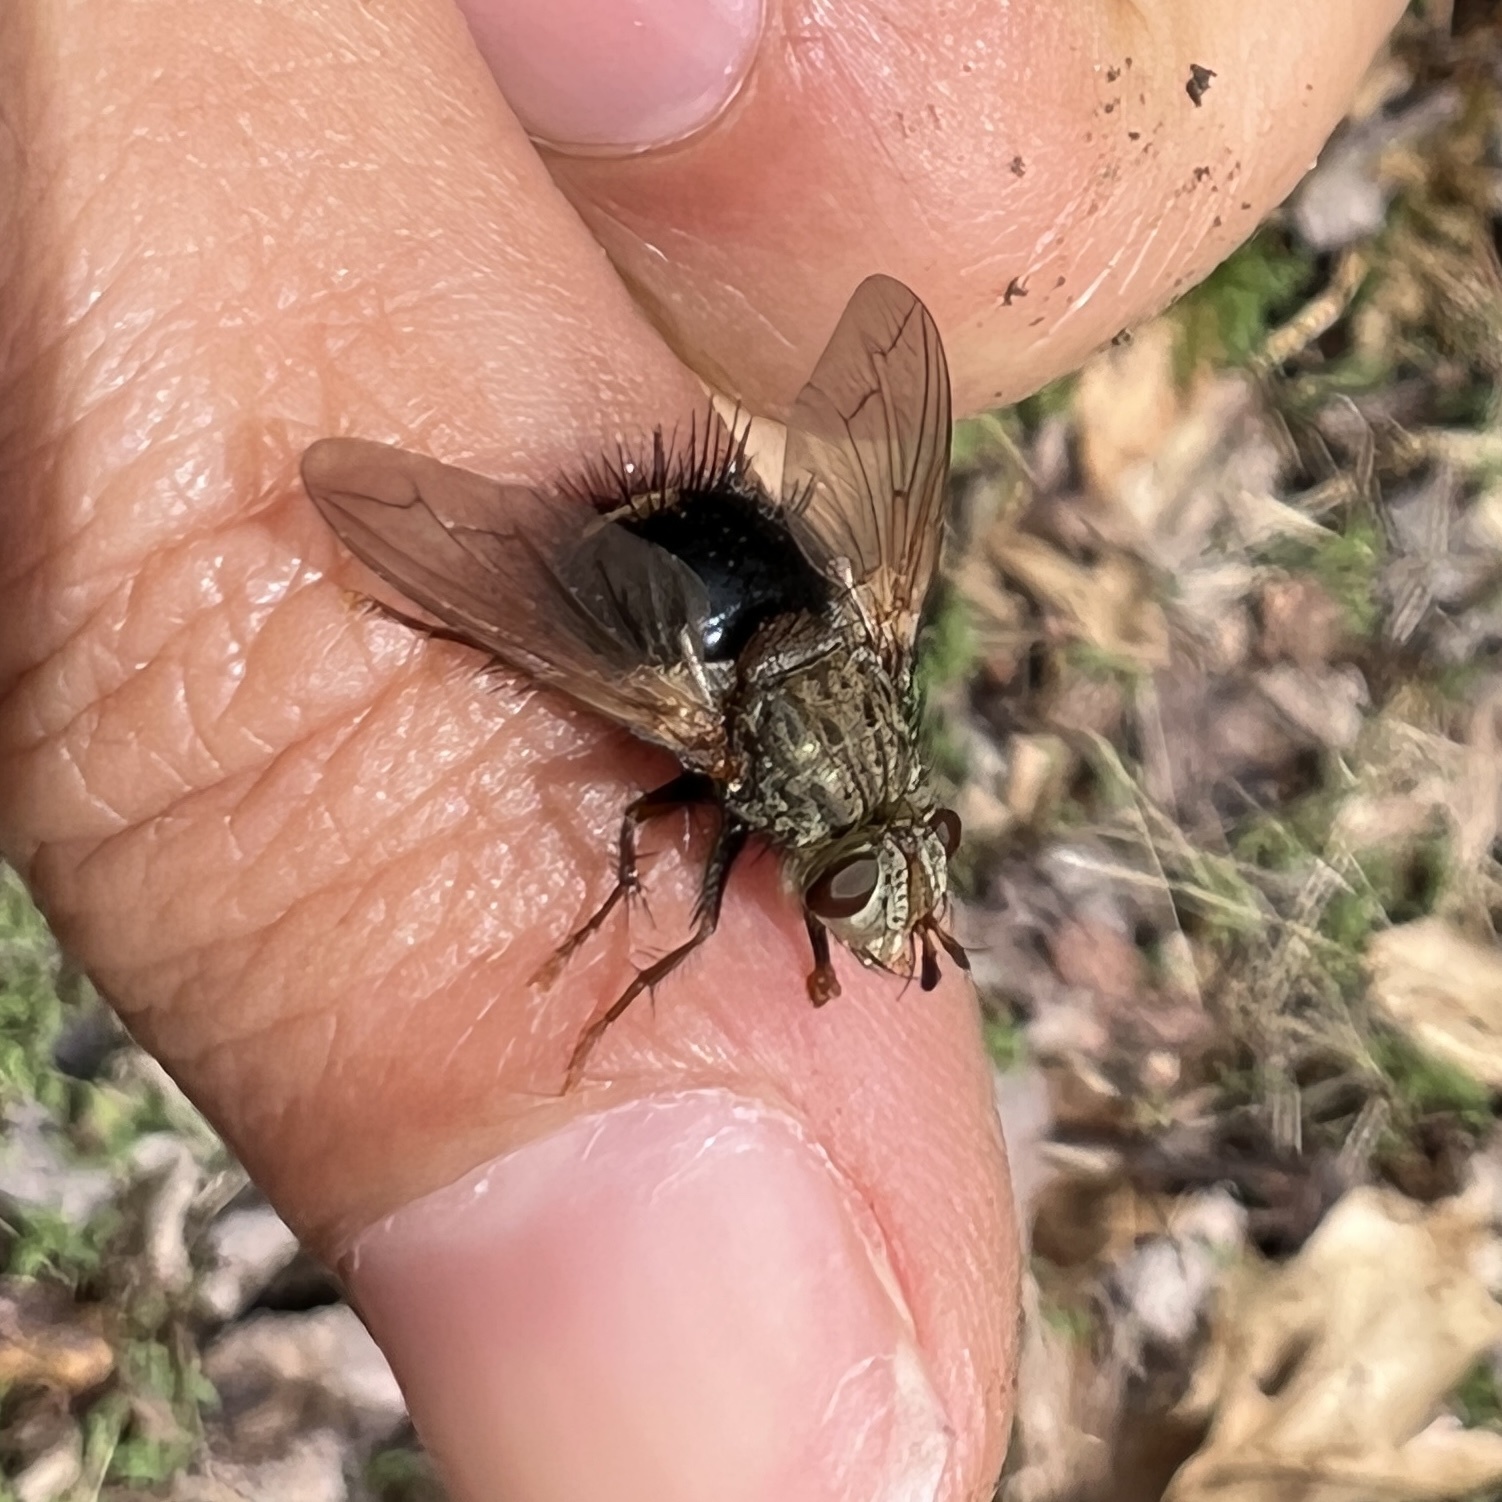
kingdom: Animalia
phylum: Arthropoda
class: Insecta
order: Diptera
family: Tachinidae
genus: Epalpus
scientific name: Epalpus signifer
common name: Early tachinid fly
